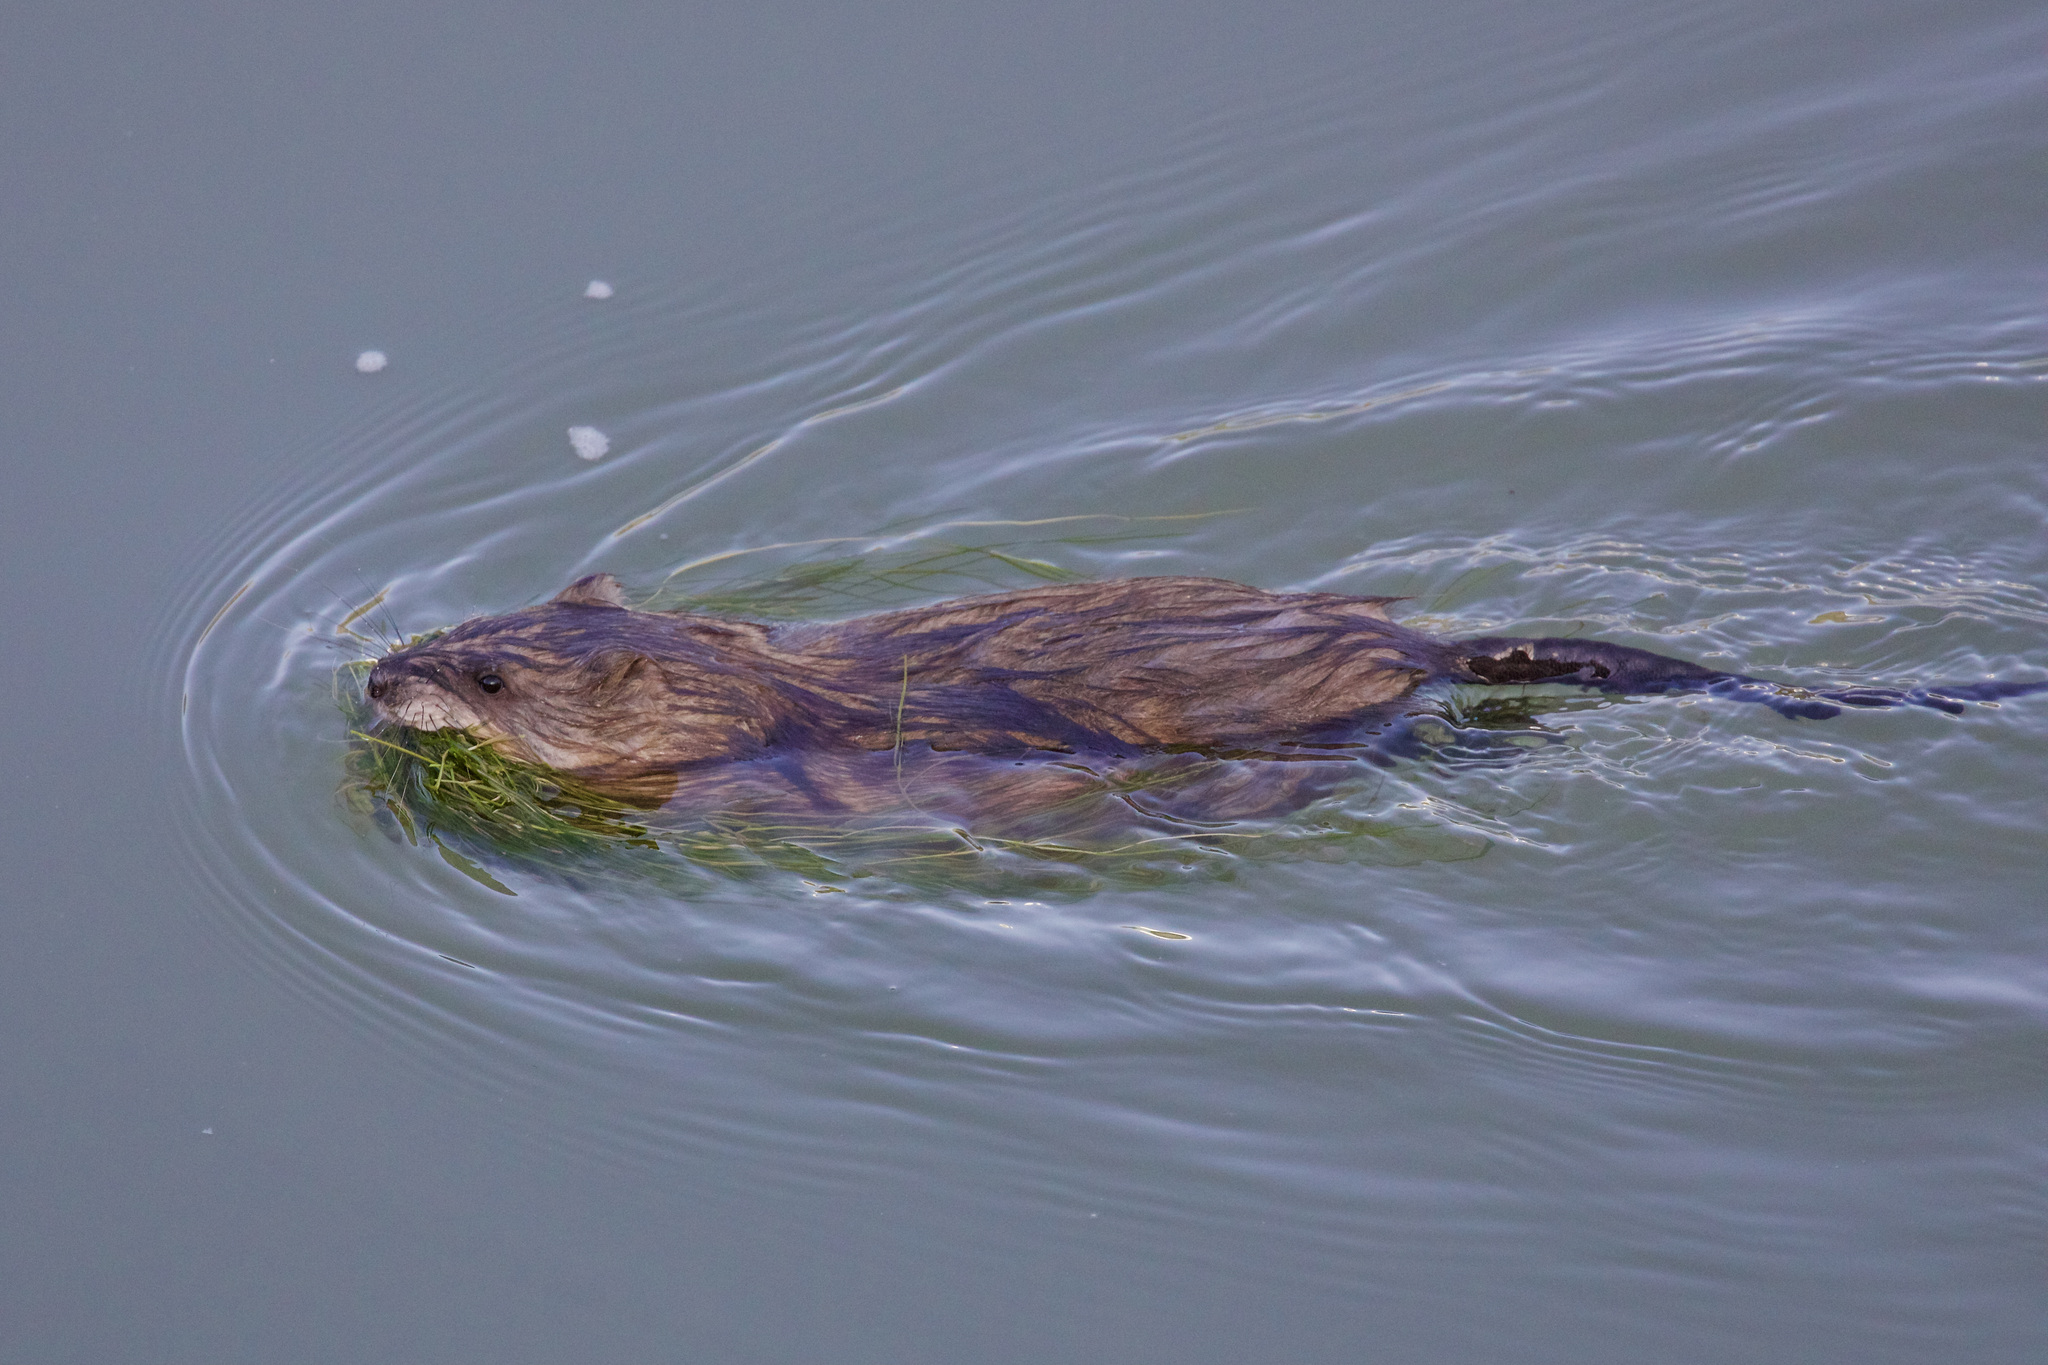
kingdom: Animalia
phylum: Chordata
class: Mammalia
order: Rodentia
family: Cricetidae
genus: Ondatra
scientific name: Ondatra zibethicus
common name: Muskrat
